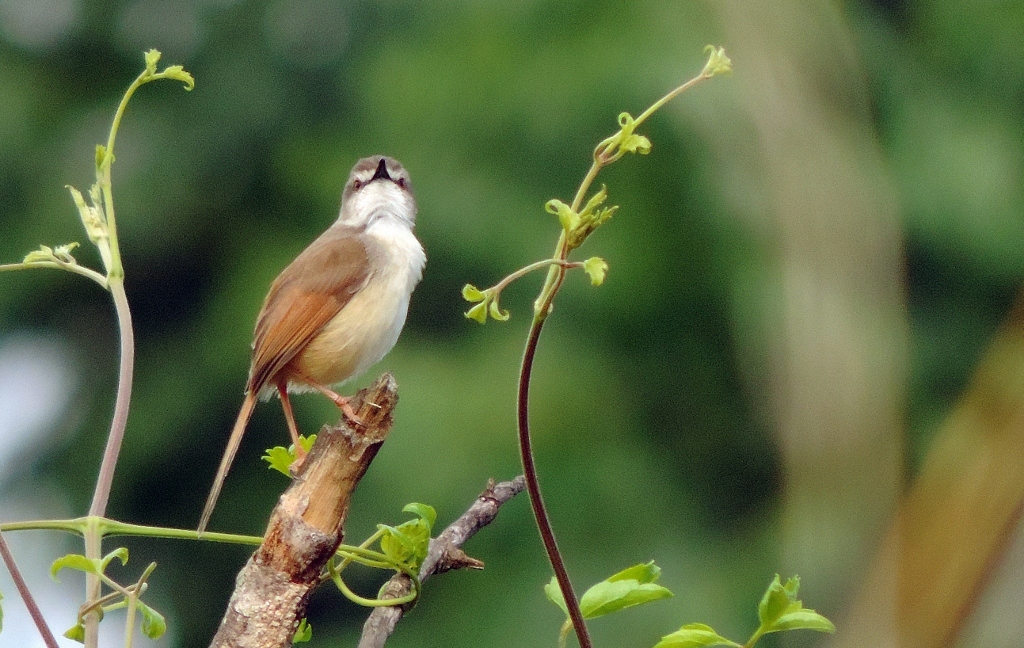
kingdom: Animalia
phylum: Chordata
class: Aves
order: Passeriformes
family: Cisticolidae
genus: Prinia
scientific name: Prinia subflava
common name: Tawny-flanked prinia
